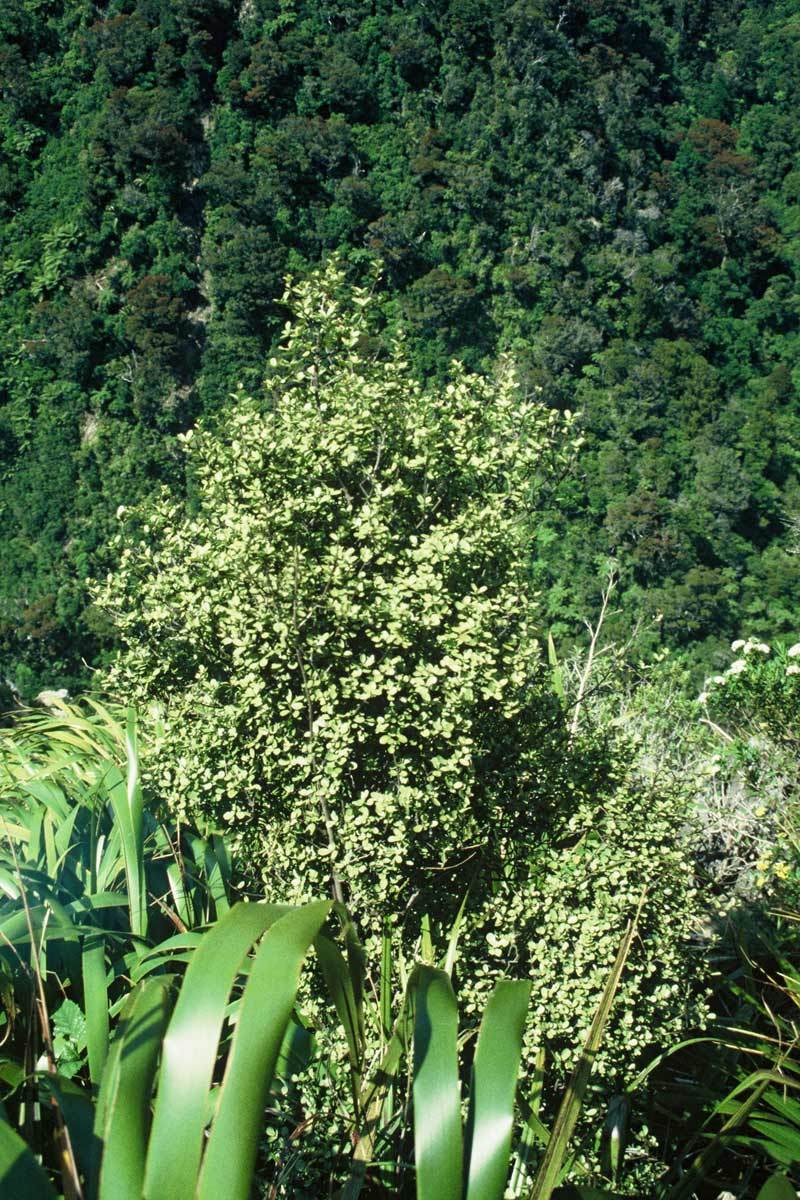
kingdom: Plantae
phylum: Tracheophyta
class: Magnoliopsida
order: Ericales
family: Primulaceae
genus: Myrsine
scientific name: Myrsine argentea
